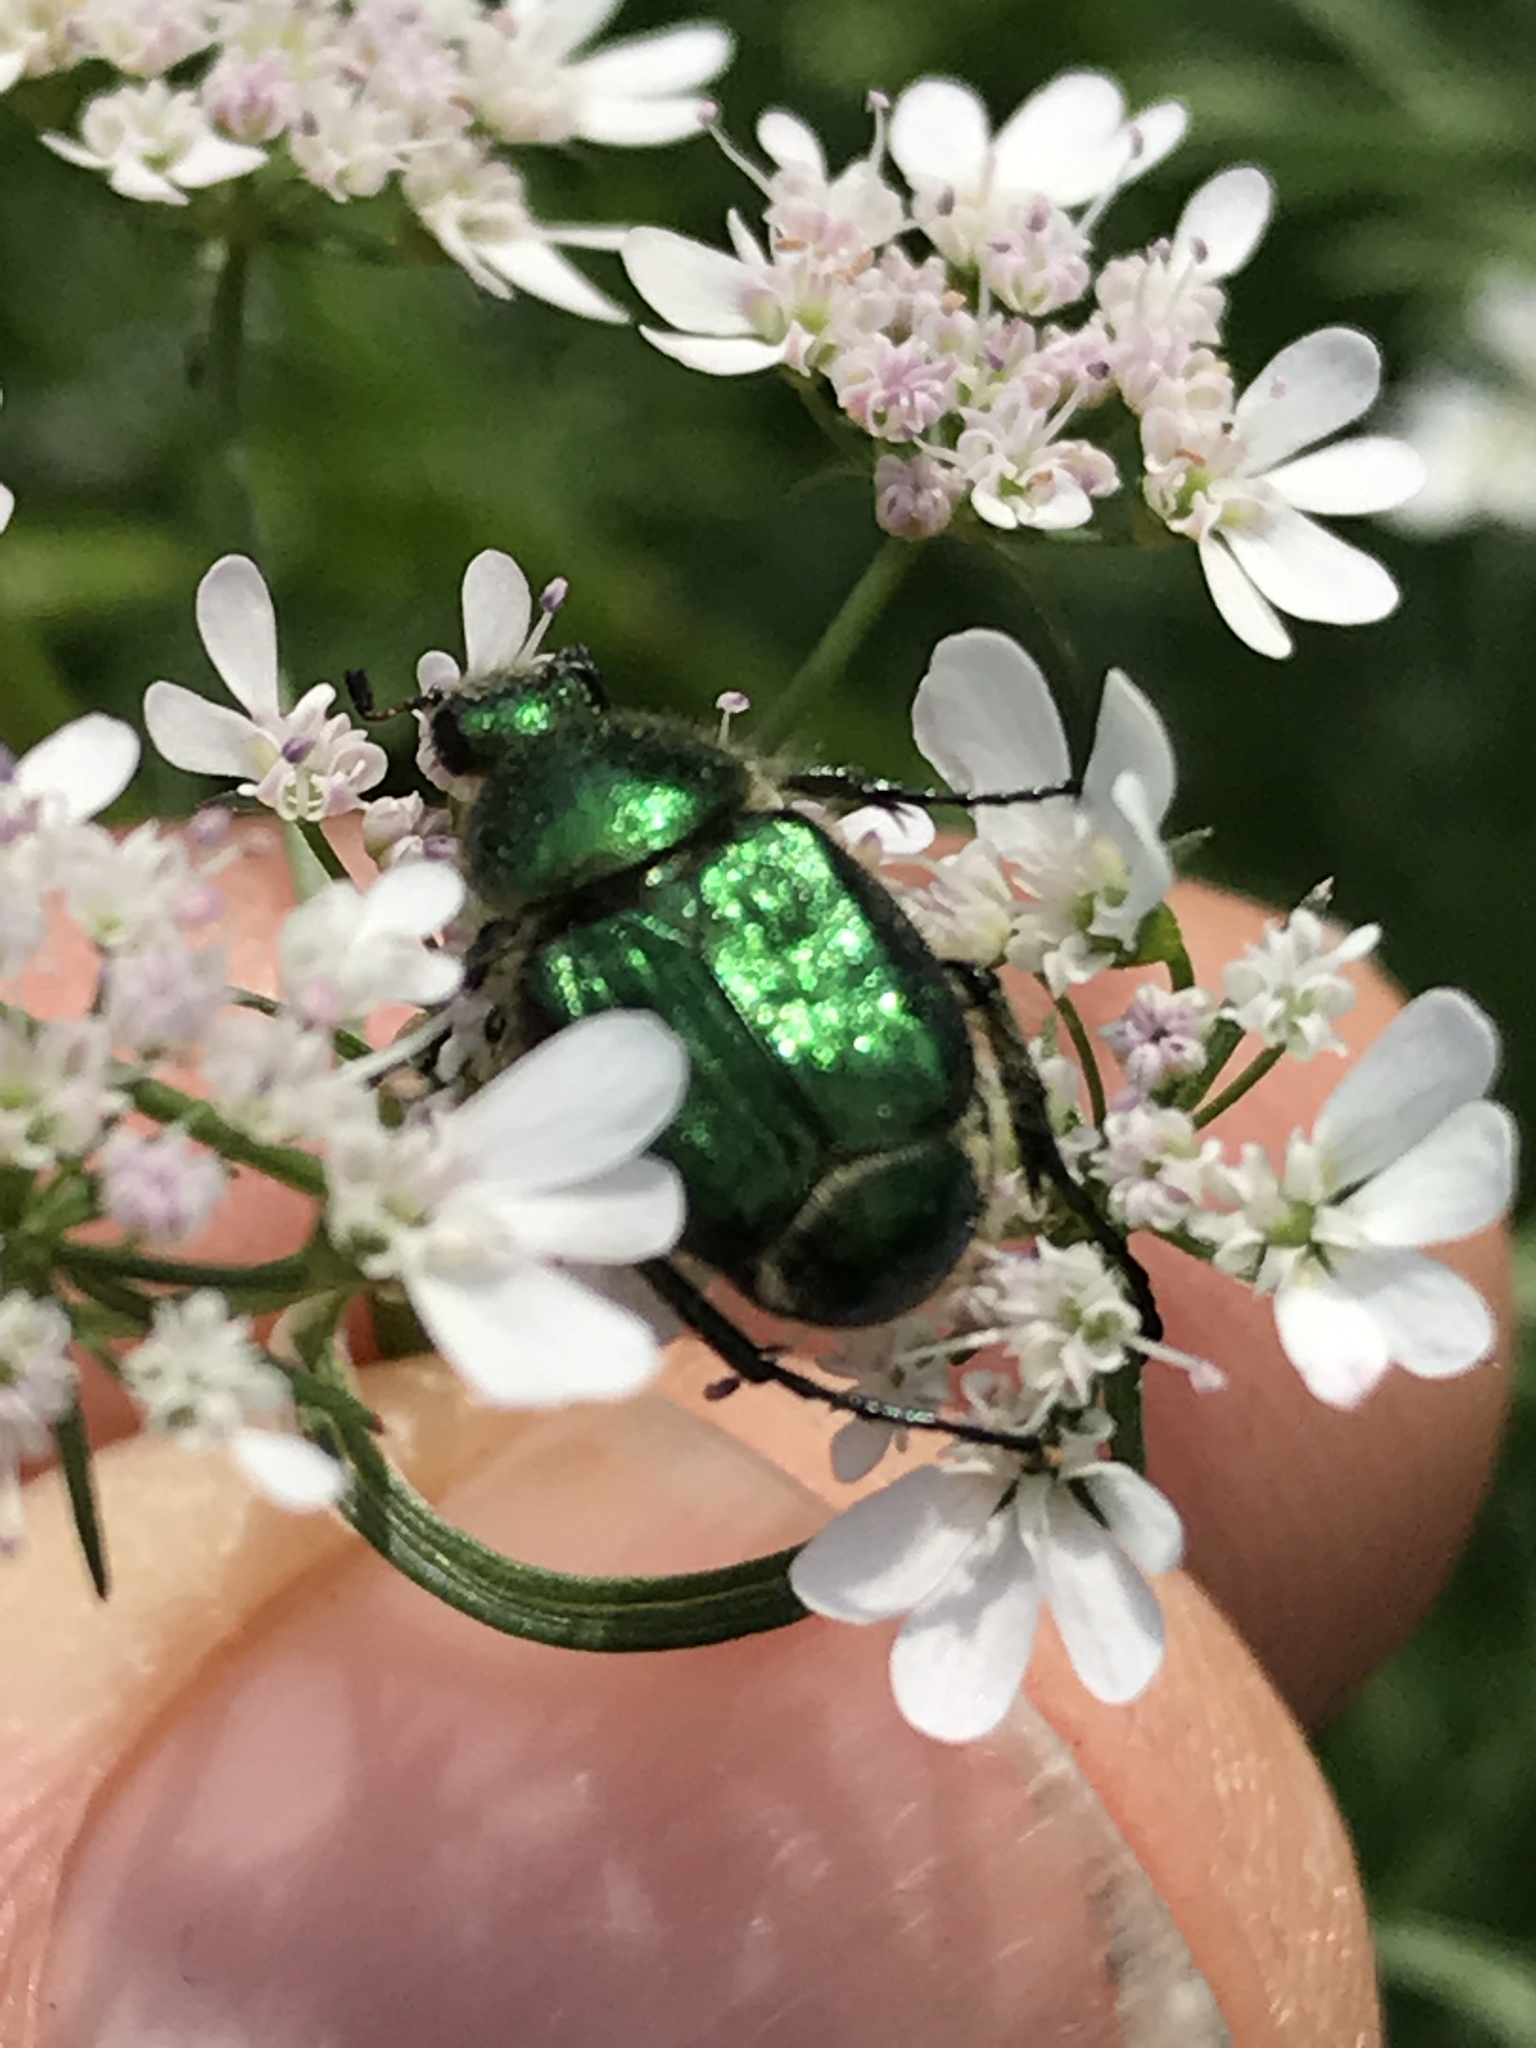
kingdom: Animalia
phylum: Arthropoda
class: Insecta
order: Coleoptera
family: Scarabaeidae
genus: Trichiotinus
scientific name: Trichiotinus lunulatus
